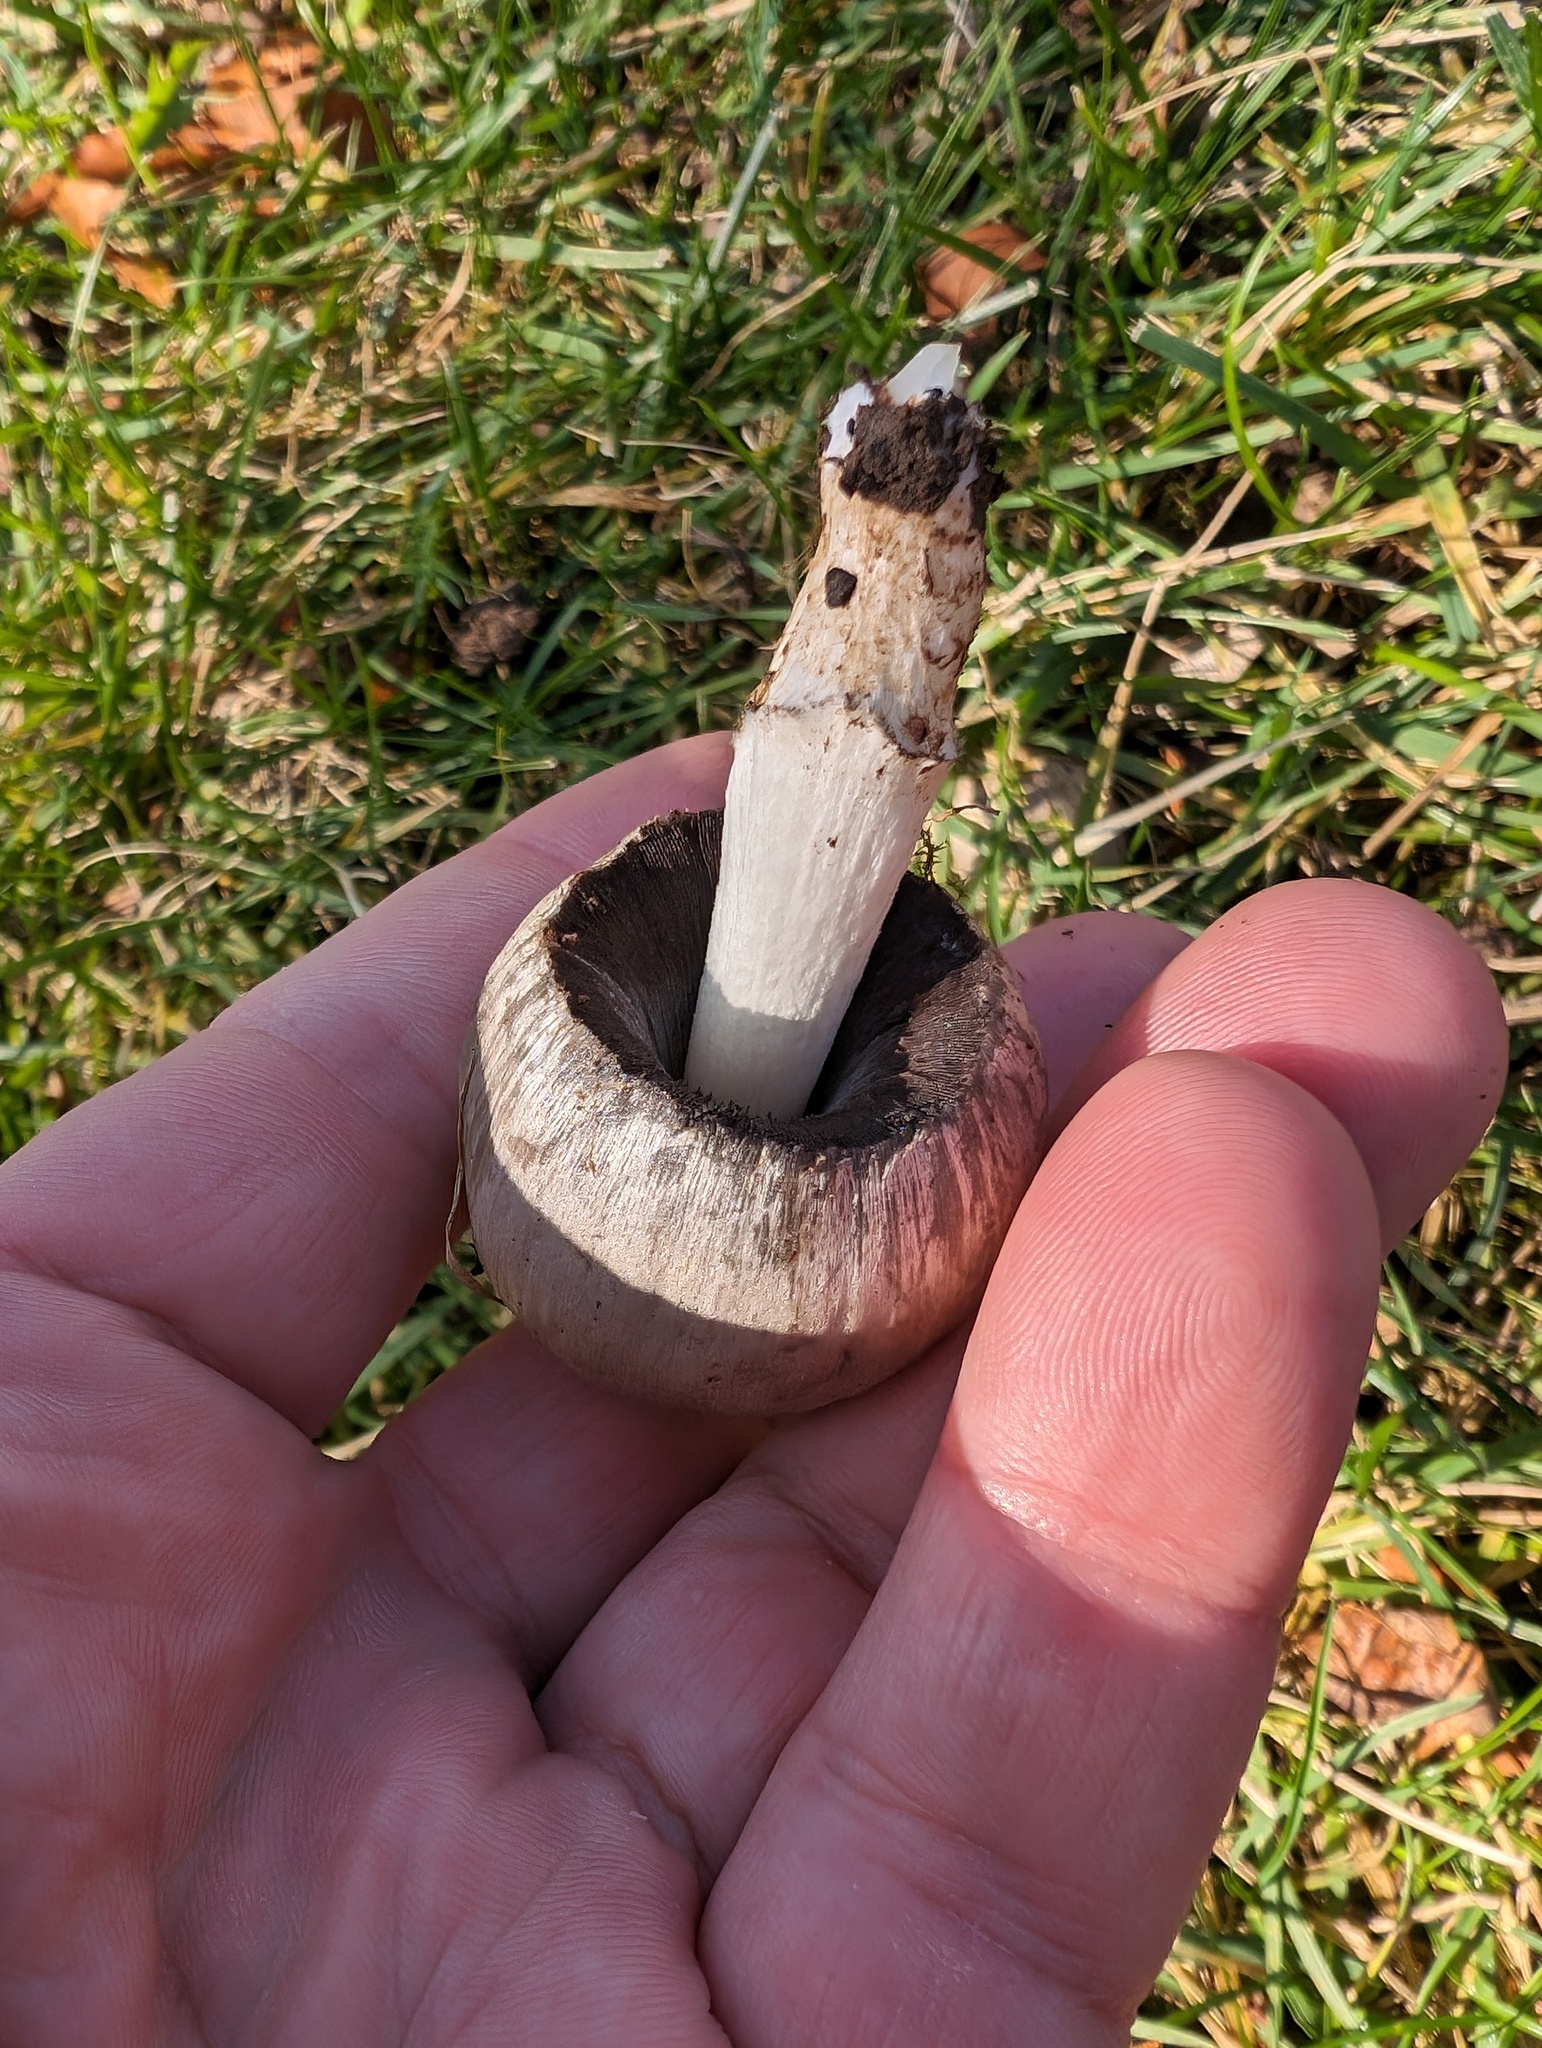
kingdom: Fungi
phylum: Basidiomycota
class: Agaricomycetes
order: Agaricales
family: Psathyrellaceae
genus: Coprinopsis
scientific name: Coprinopsis atramentaria
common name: Common ink-cap
